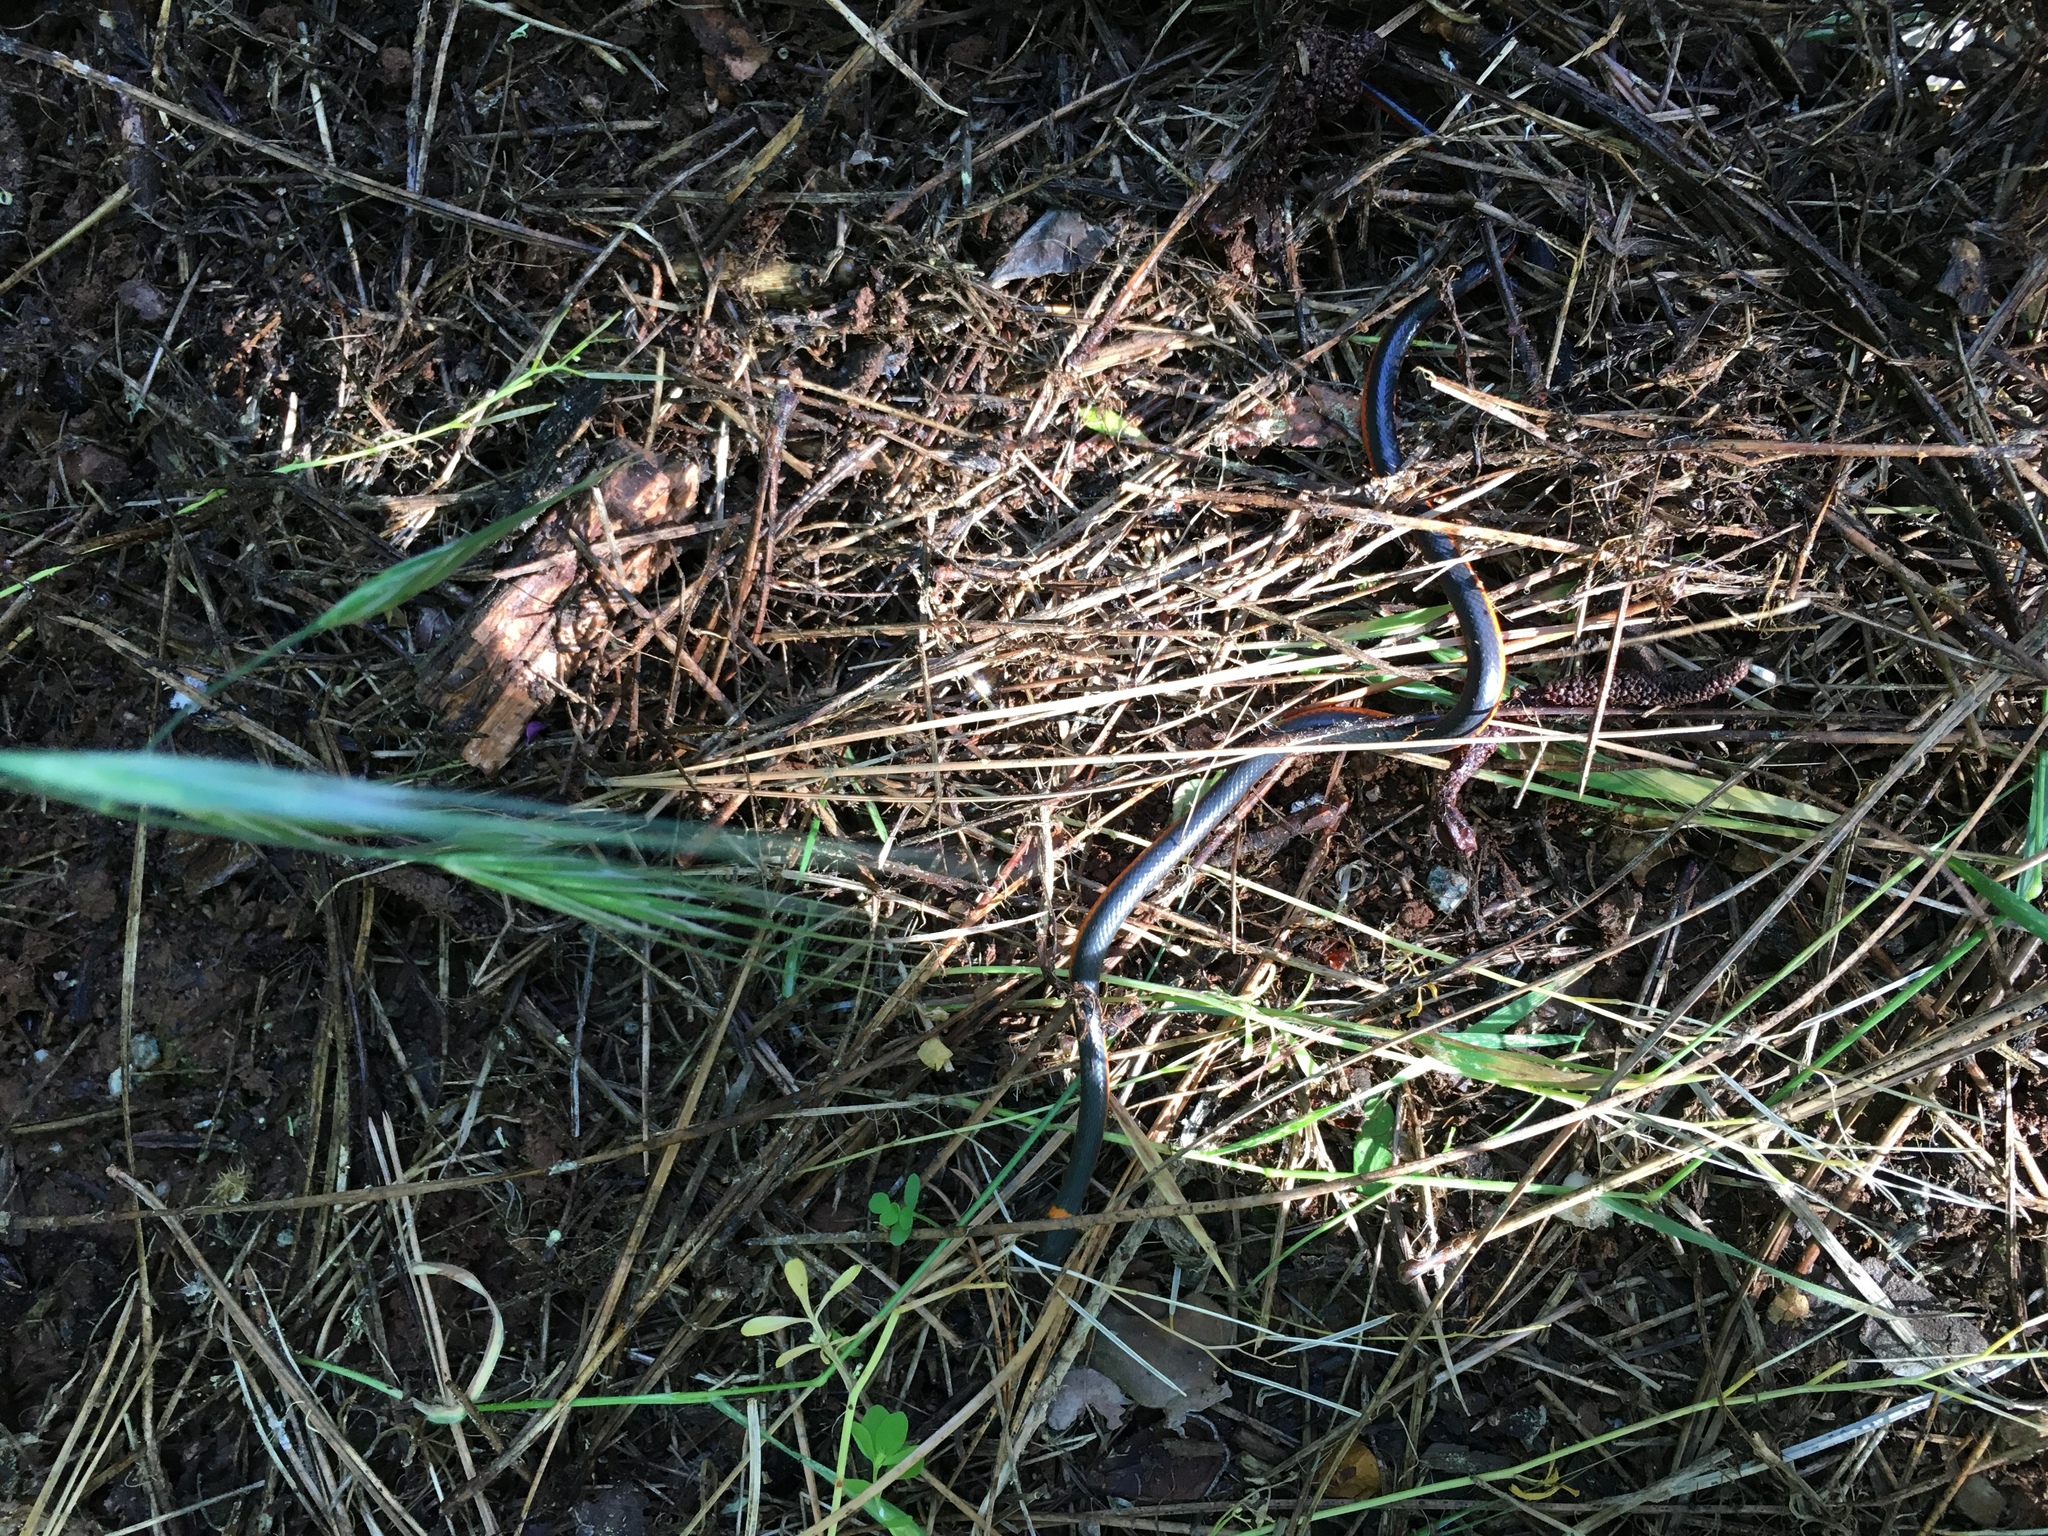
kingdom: Animalia
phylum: Chordata
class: Squamata
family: Colubridae
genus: Diadophis
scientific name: Diadophis punctatus
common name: Ringneck snake
